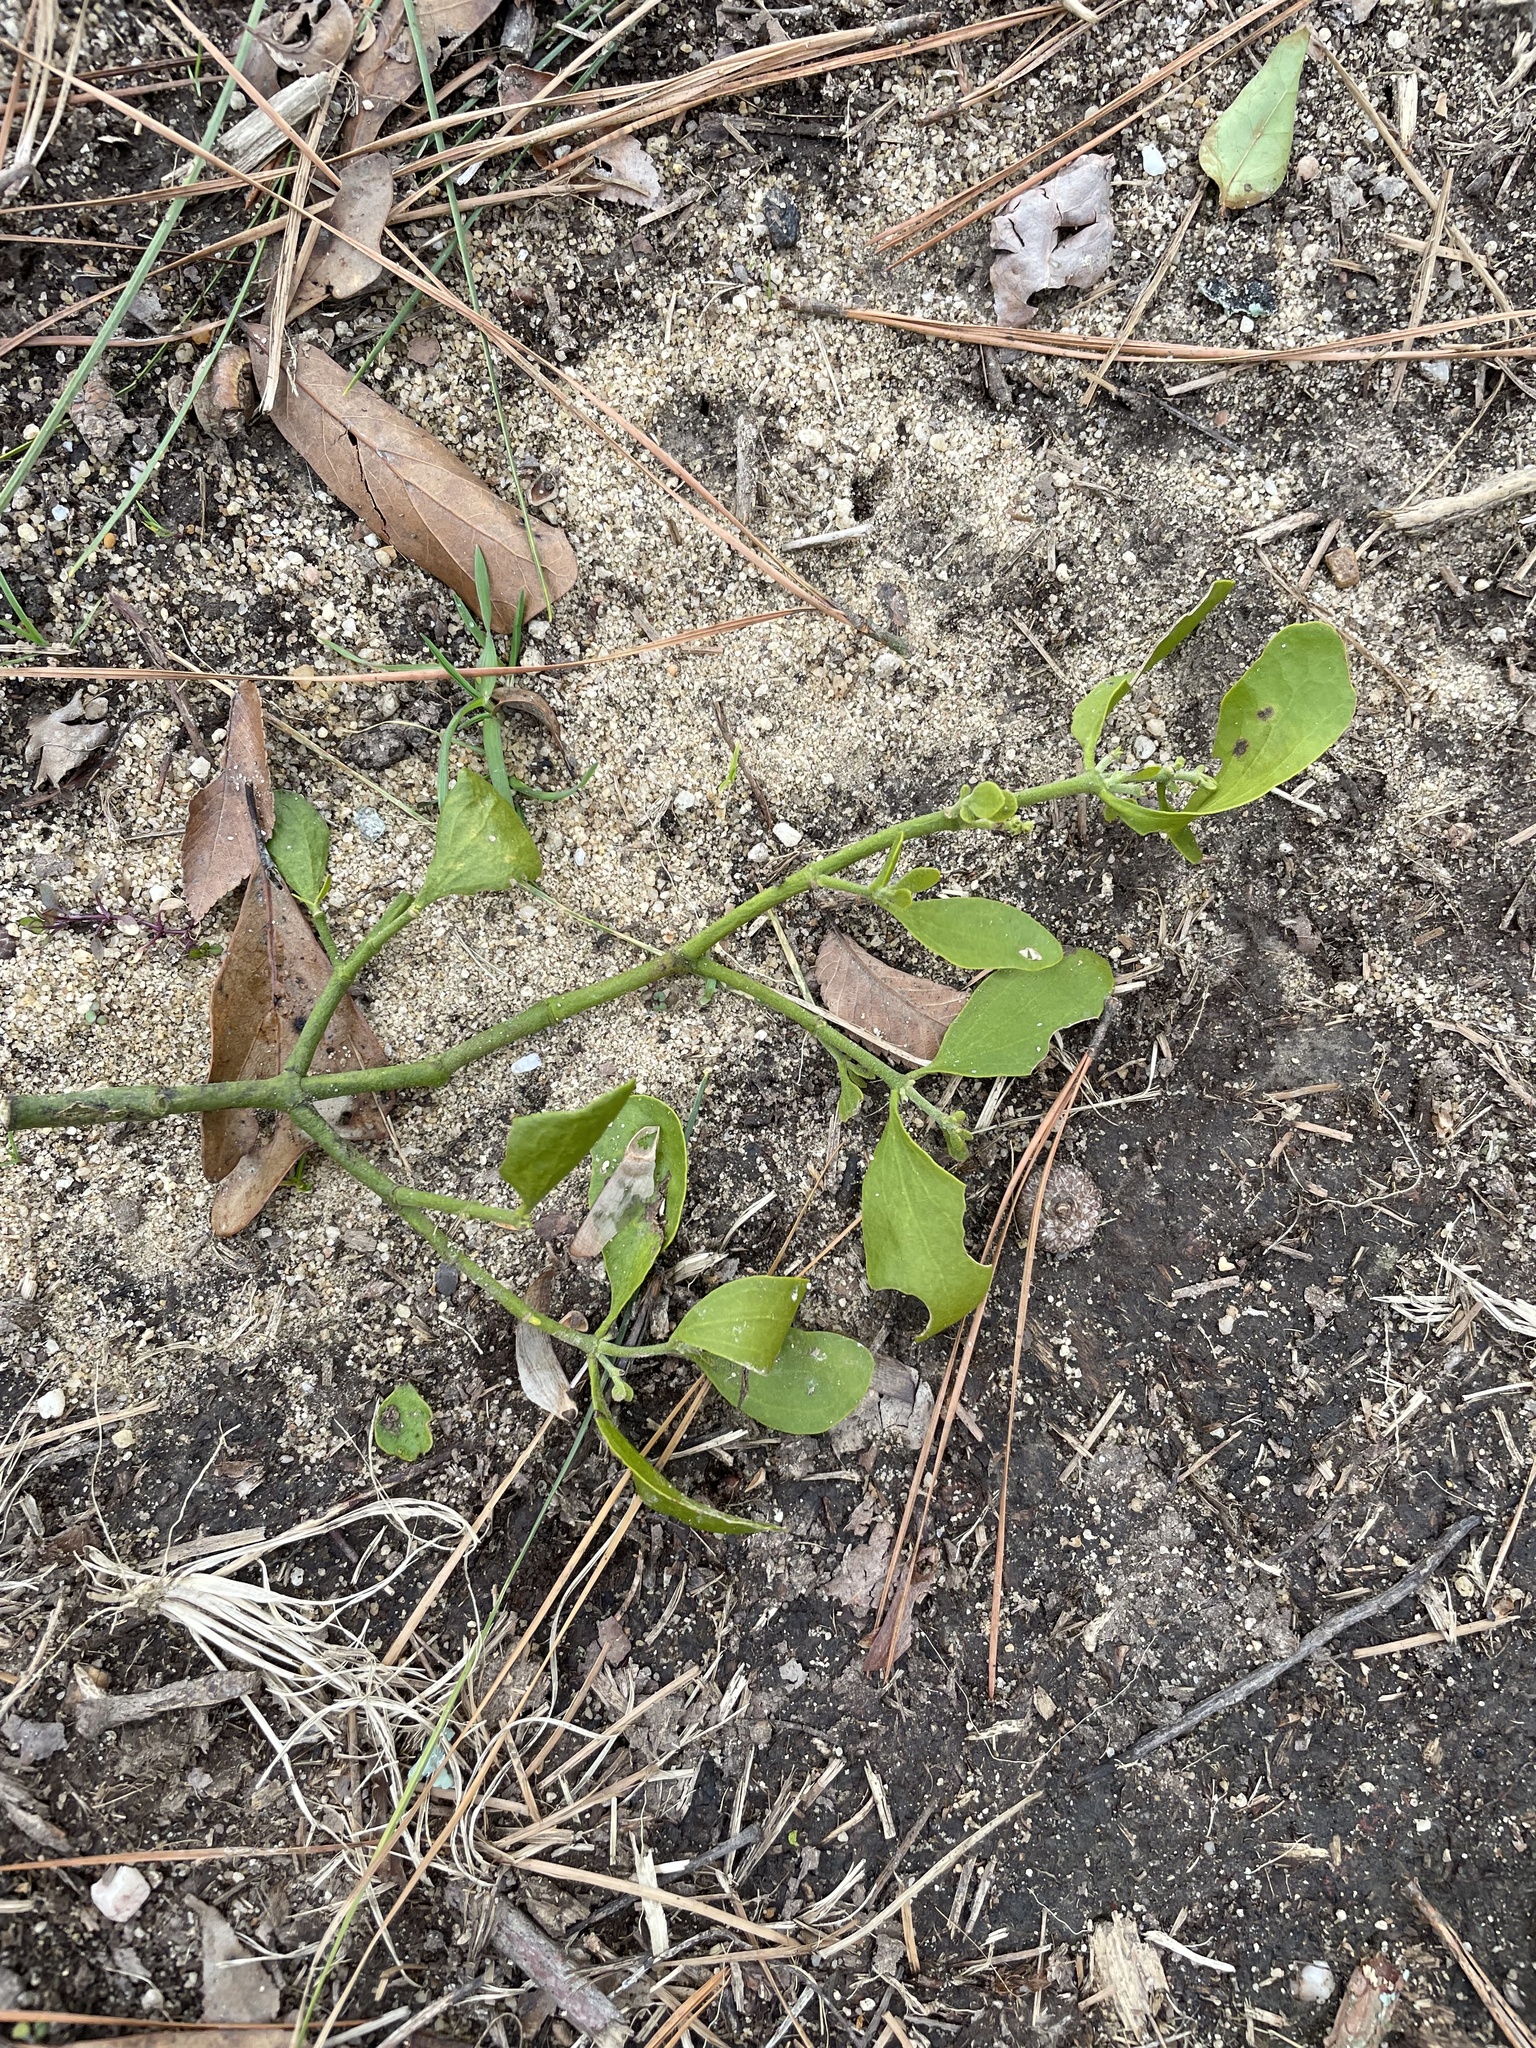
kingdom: Plantae
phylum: Tracheophyta
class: Magnoliopsida
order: Santalales
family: Viscaceae
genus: Phoradendron
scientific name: Phoradendron leucarpum
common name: Pacific mistletoe
